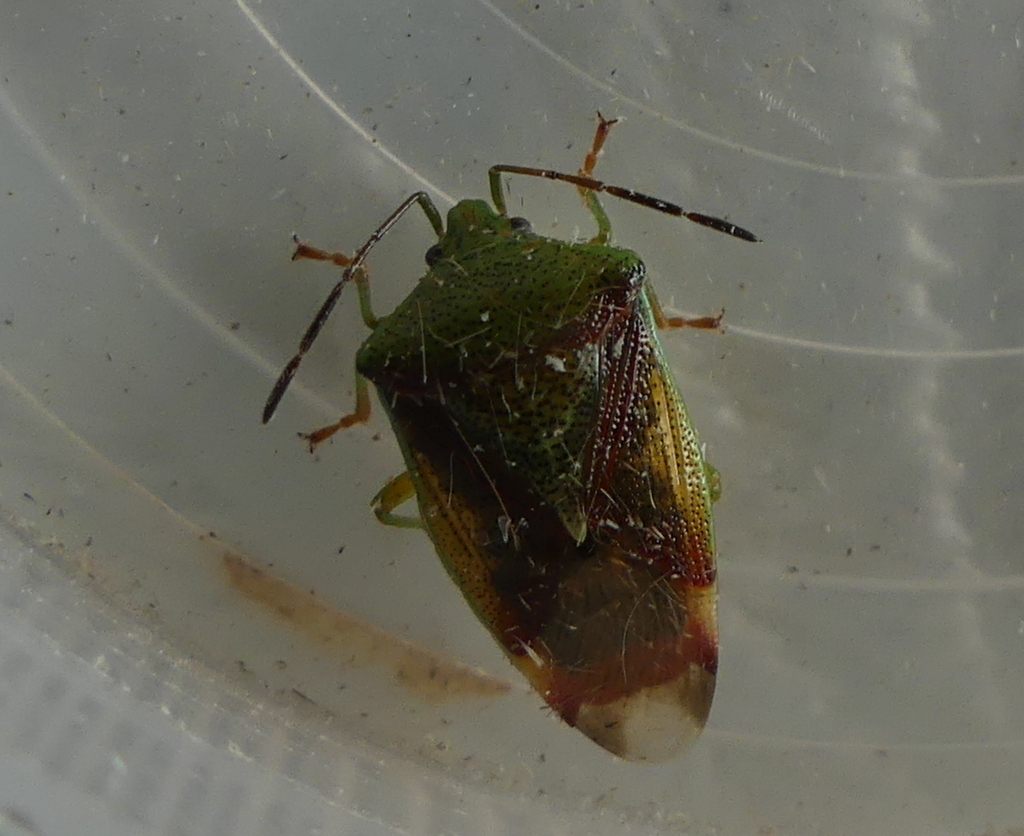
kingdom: Animalia
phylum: Arthropoda
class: Insecta
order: Hemiptera
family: Acanthosomatidae
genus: Elasmostethus
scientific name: Elasmostethus interstinctus
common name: Birch shieldbug
